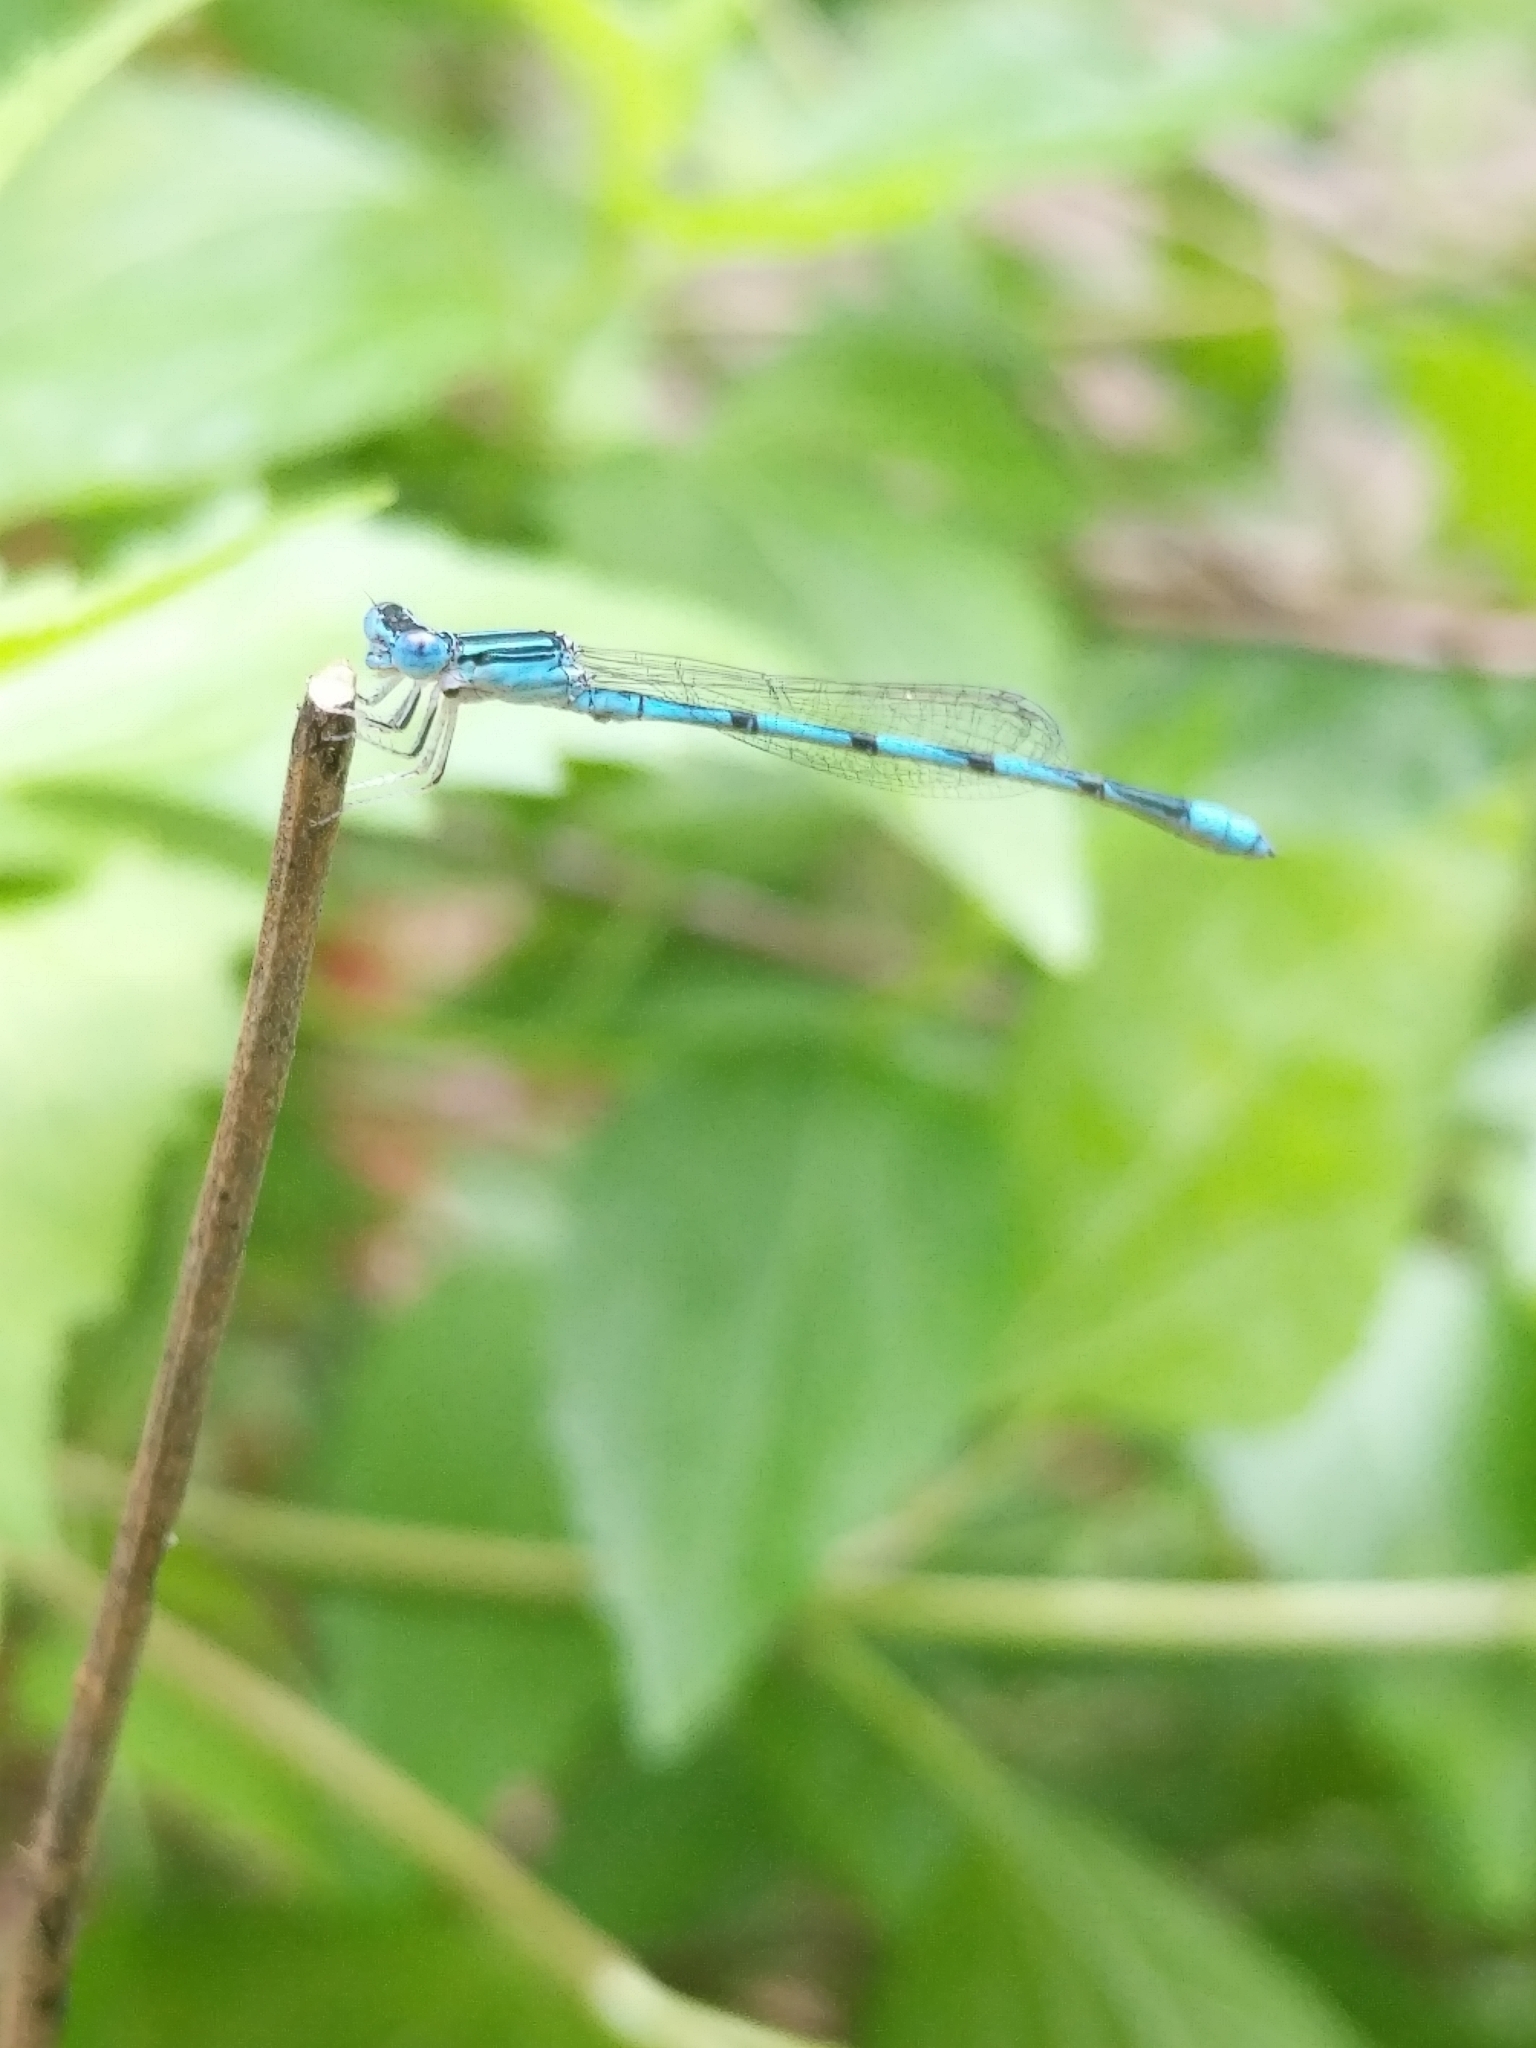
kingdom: Animalia
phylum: Arthropoda
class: Insecta
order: Odonata
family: Coenagrionidae
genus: Enallagma
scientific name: Enallagma basidens
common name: Double-striped bluet
